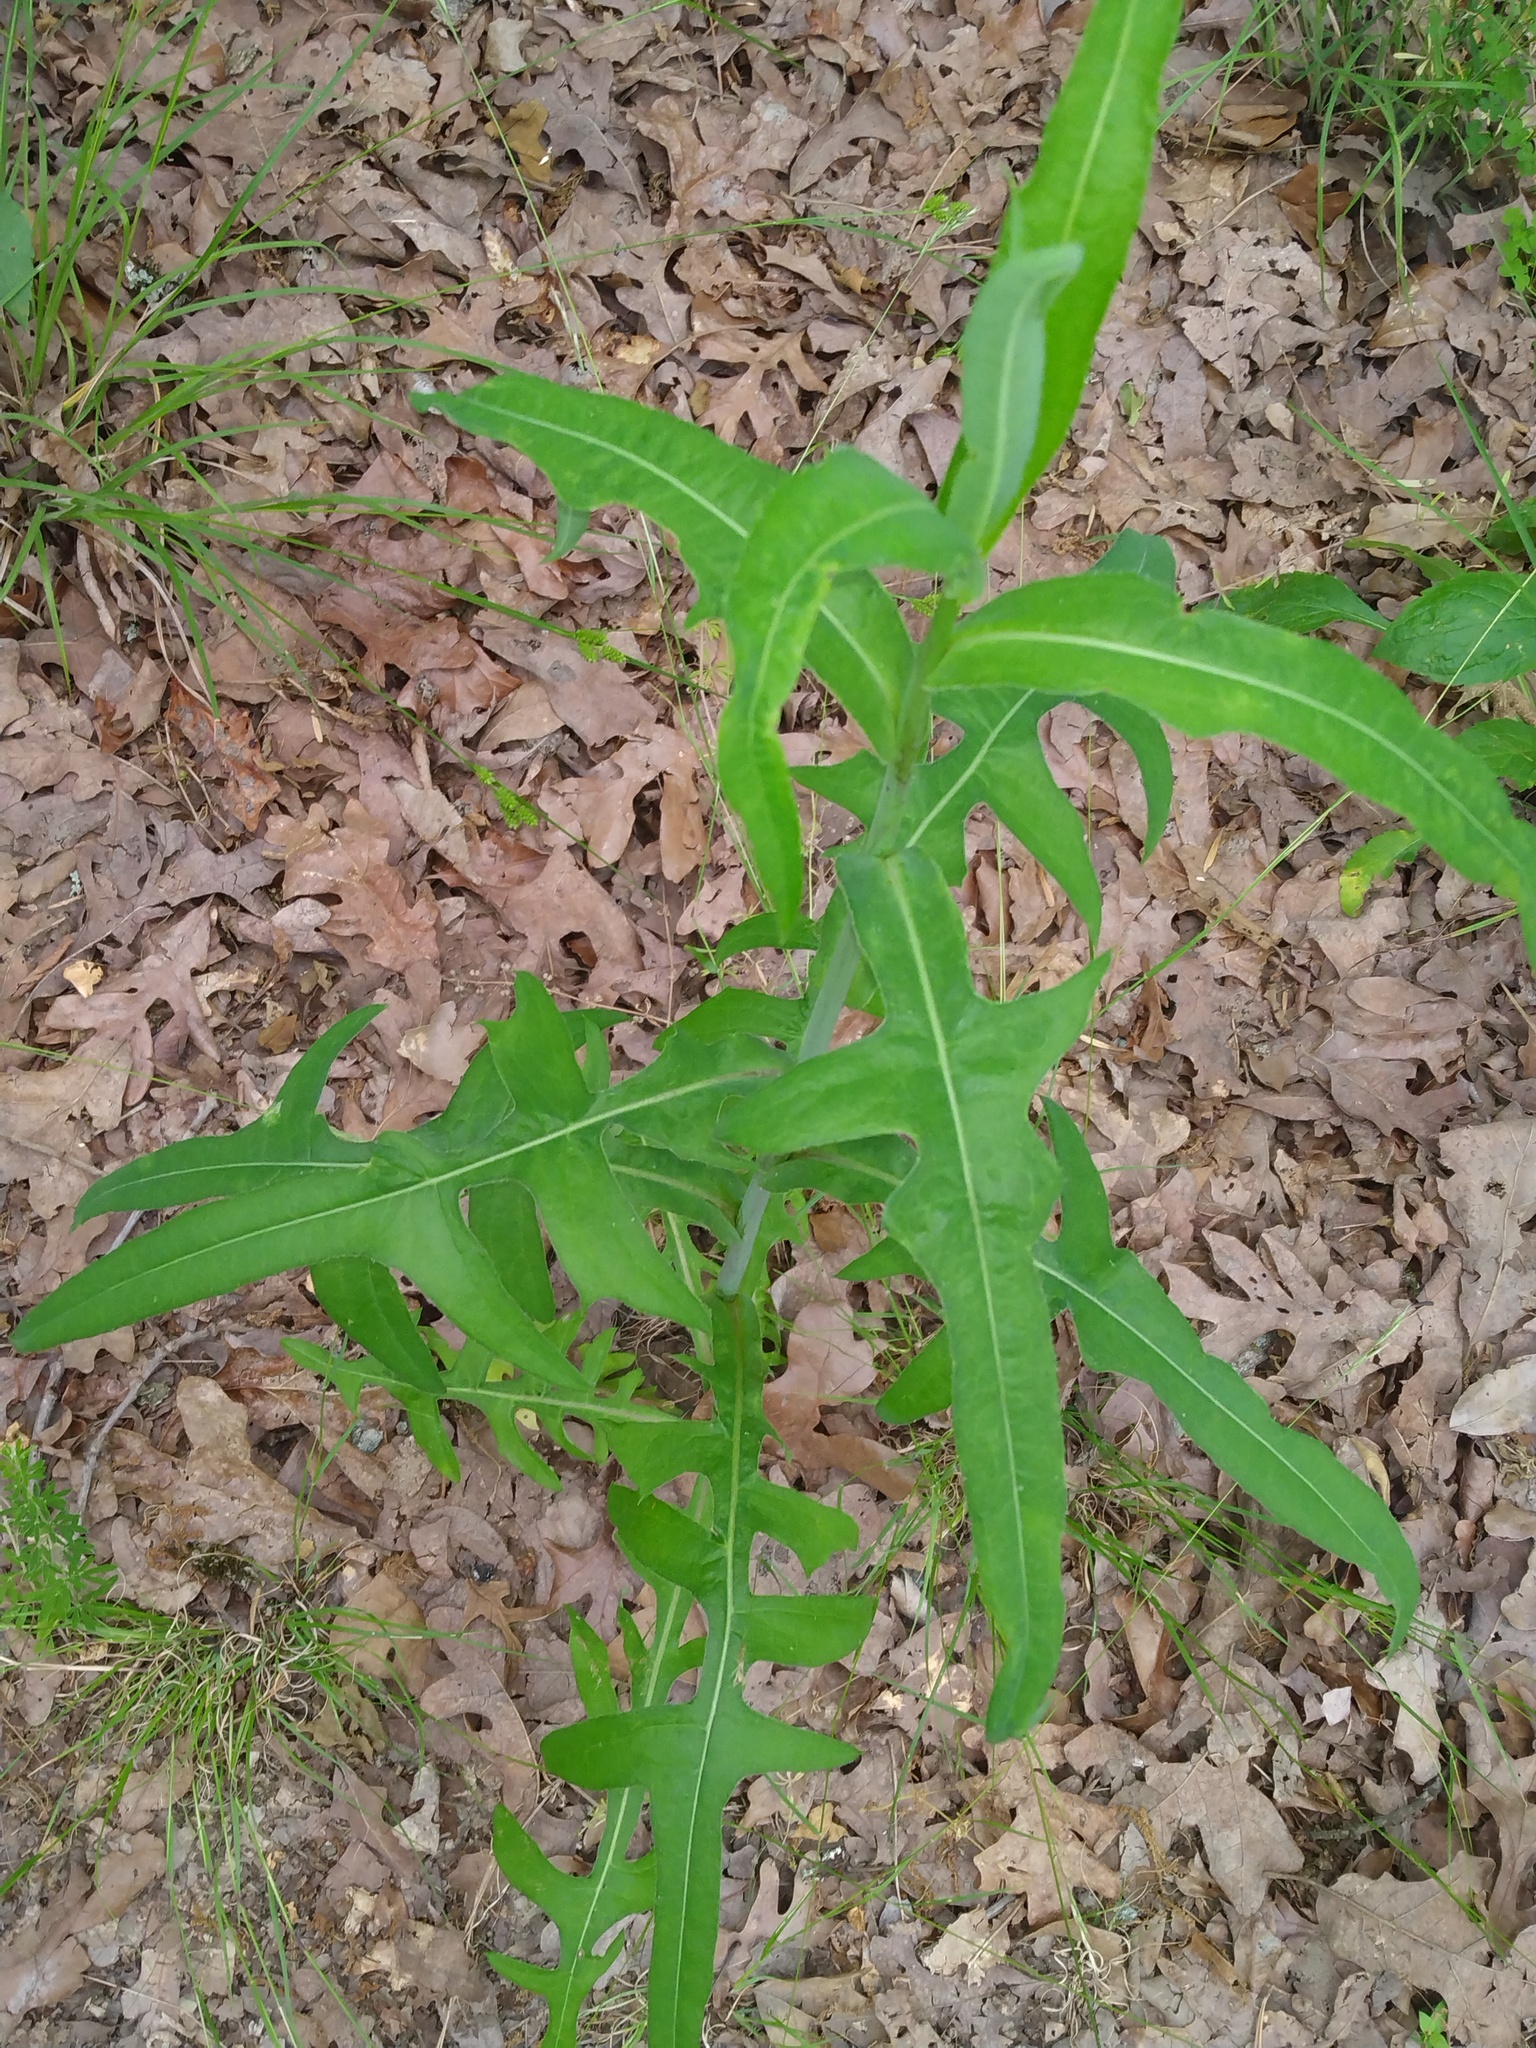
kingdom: Plantae
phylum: Tracheophyta
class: Magnoliopsida
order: Asterales
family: Asteraceae
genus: Lactuca
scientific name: Lactuca canadensis
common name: Canada lettuce
